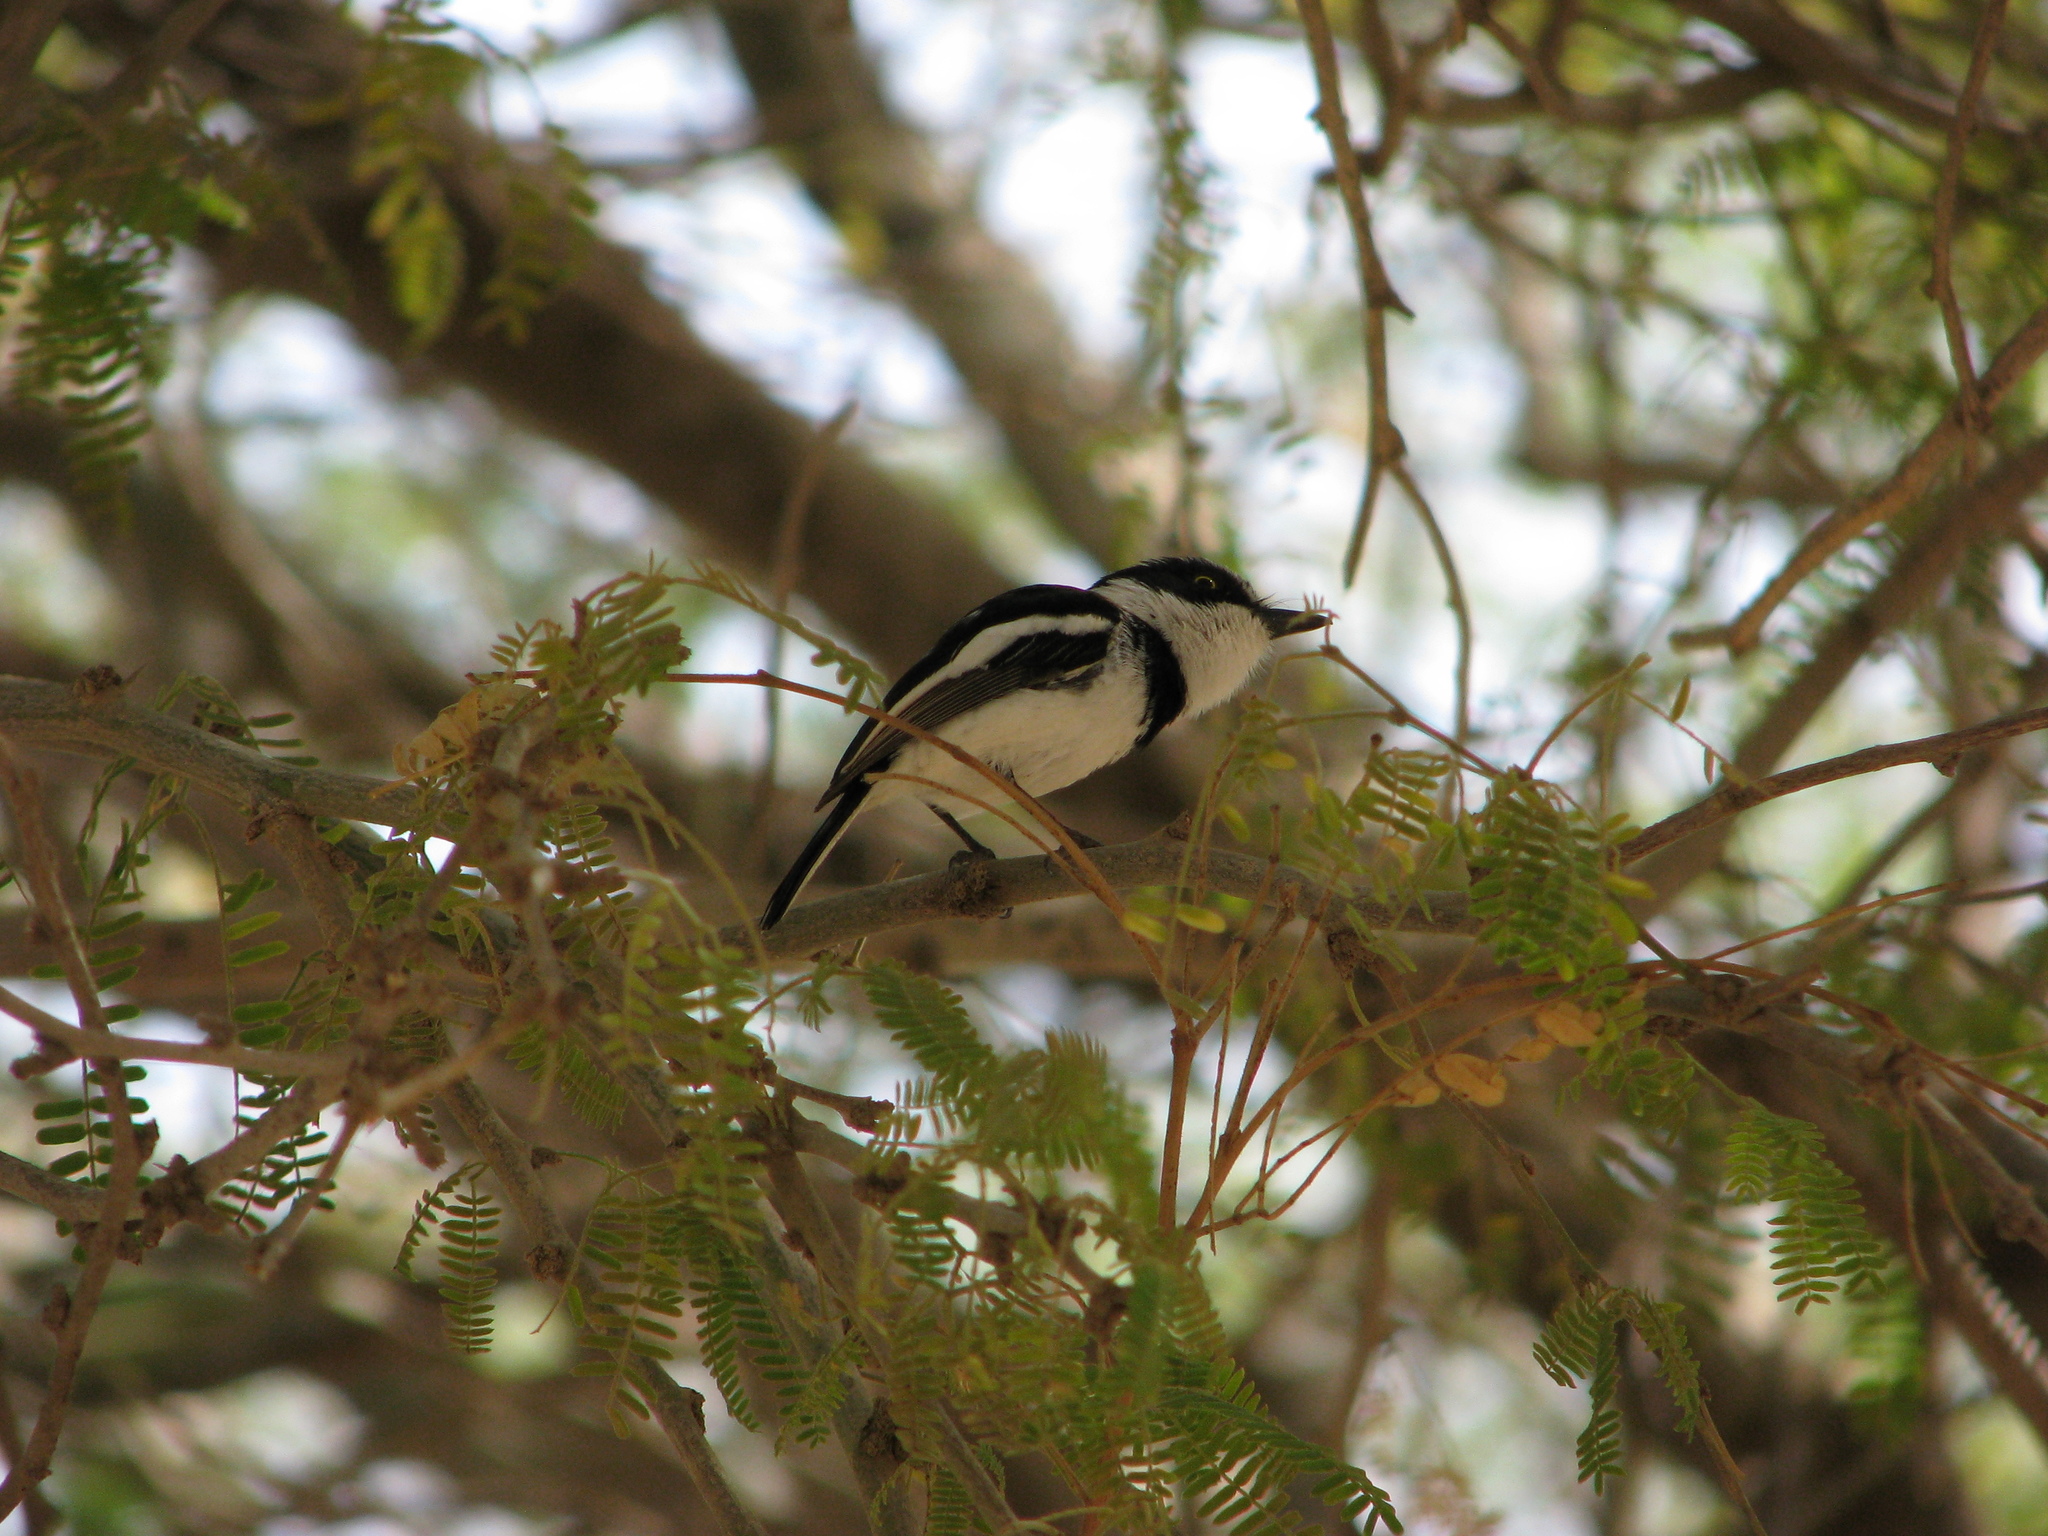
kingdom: Animalia
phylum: Chordata
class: Aves
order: Passeriformes
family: Platysteiridae
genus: Batis
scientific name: Batis senegalensis
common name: Senegal batis
